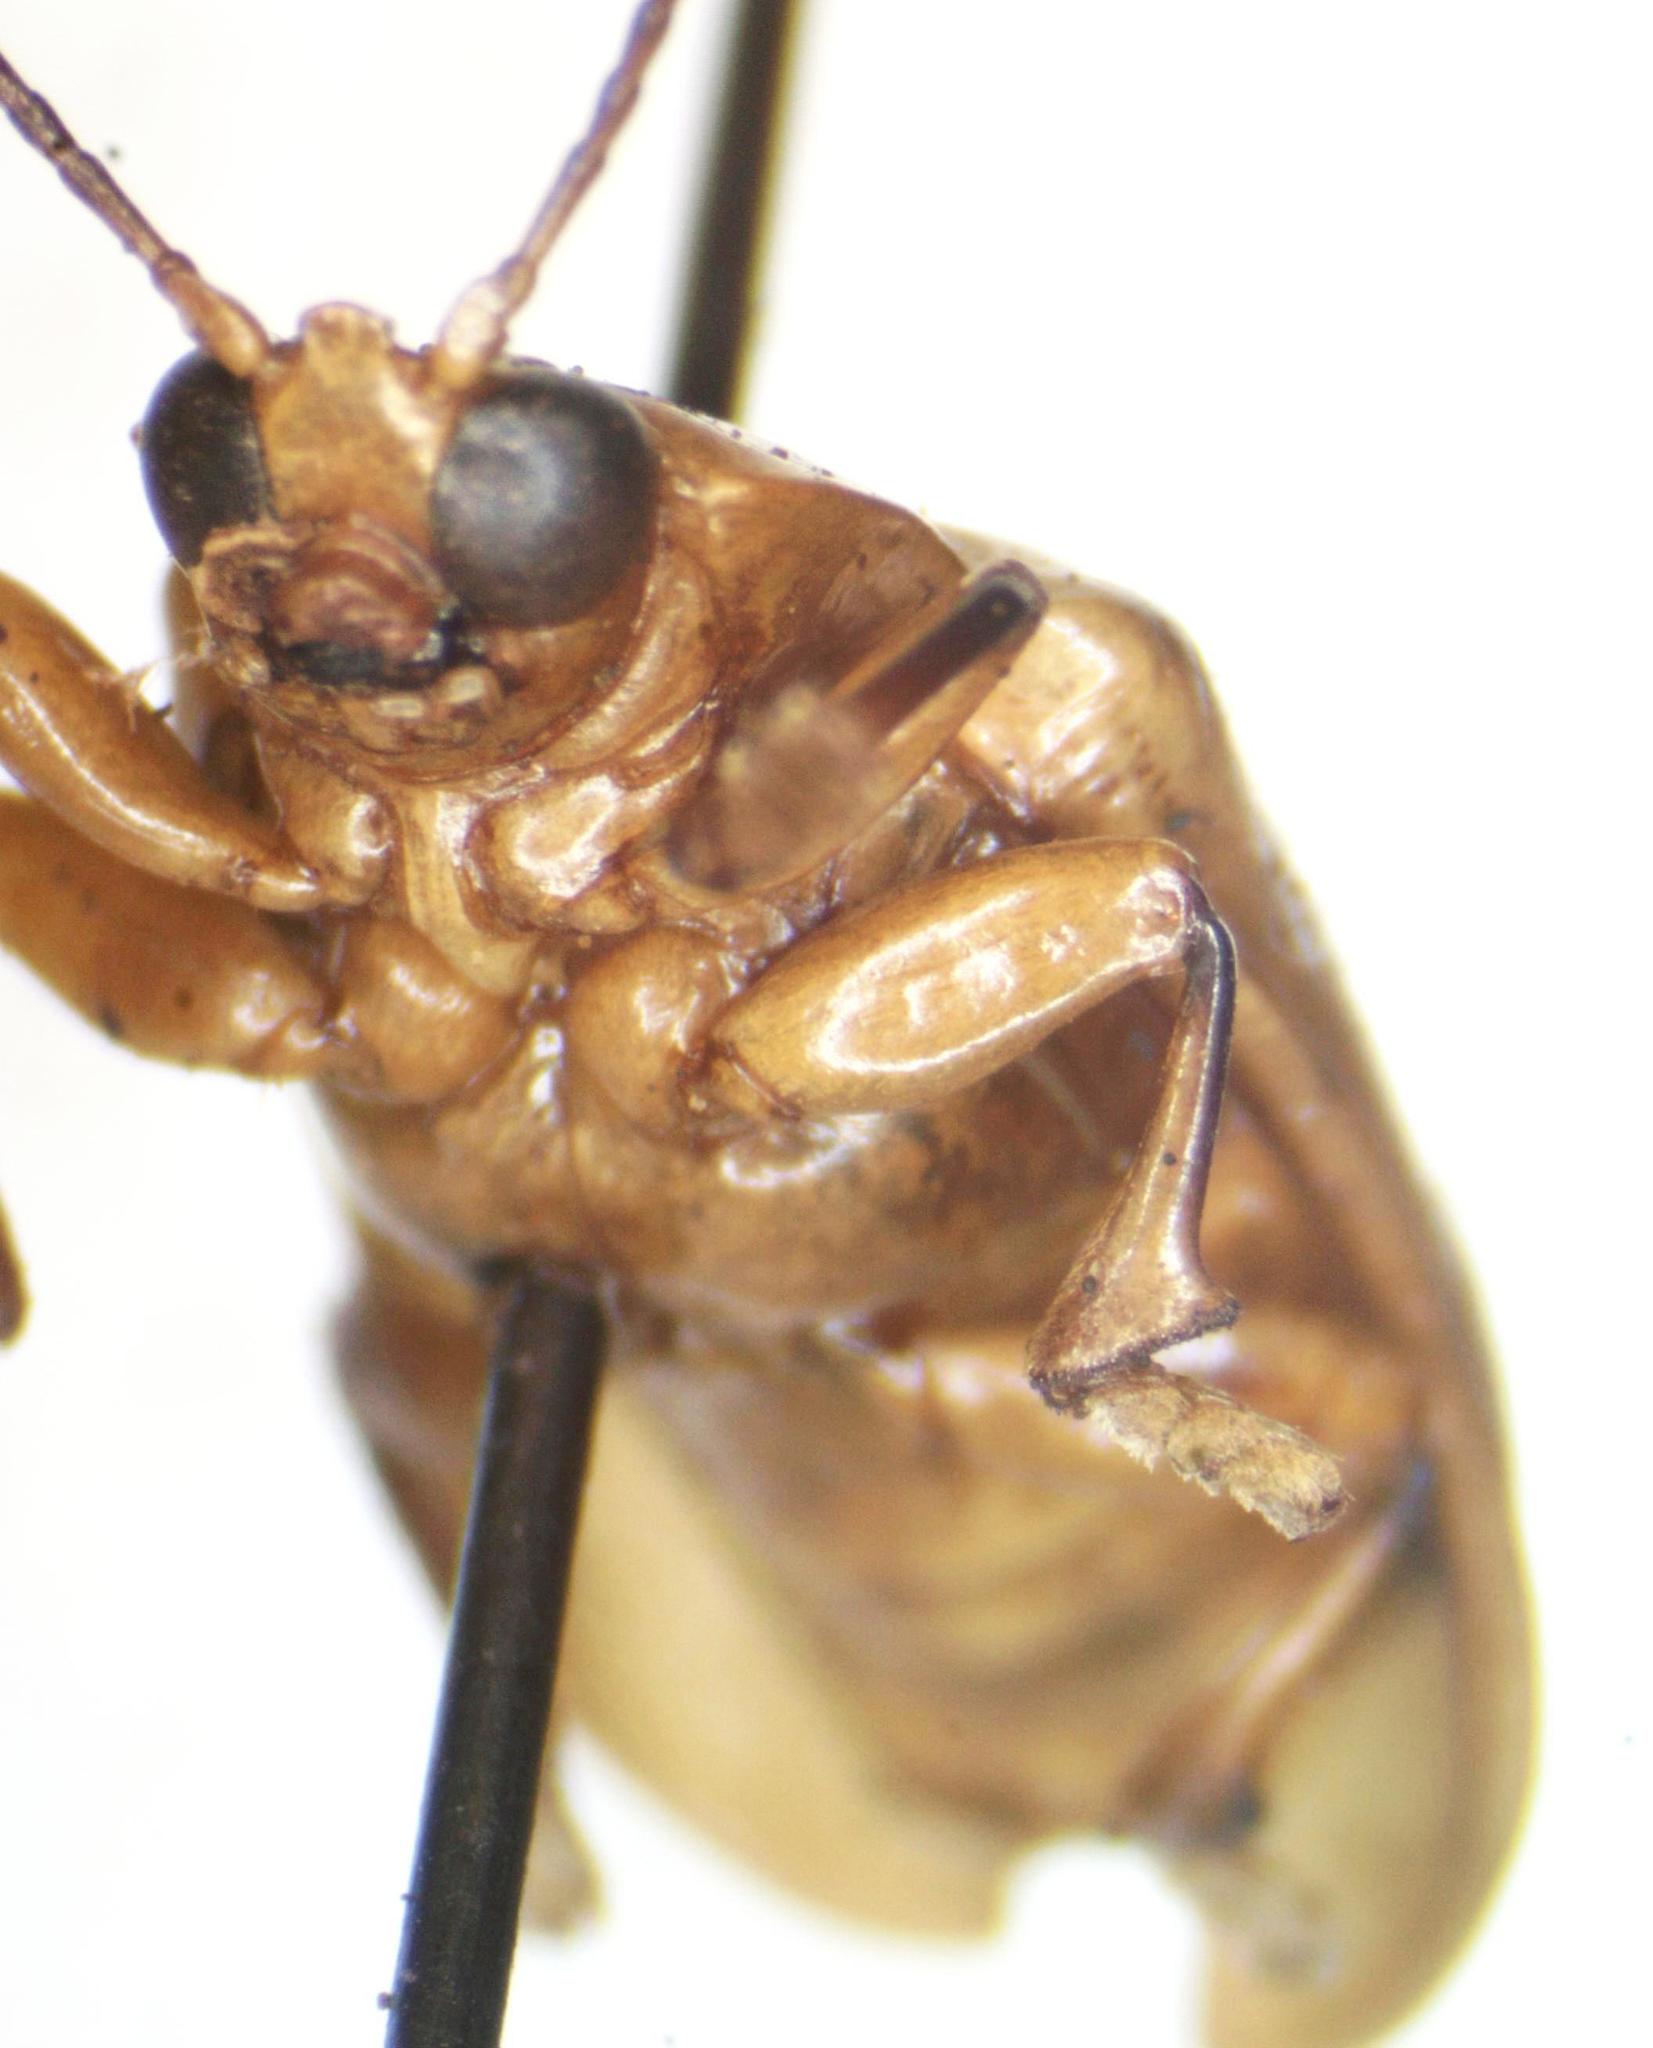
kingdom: Animalia
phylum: Arthropoda
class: Insecta
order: Coleoptera
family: Chrysomelidae
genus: Chelobasis
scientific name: Chelobasis bicolor
